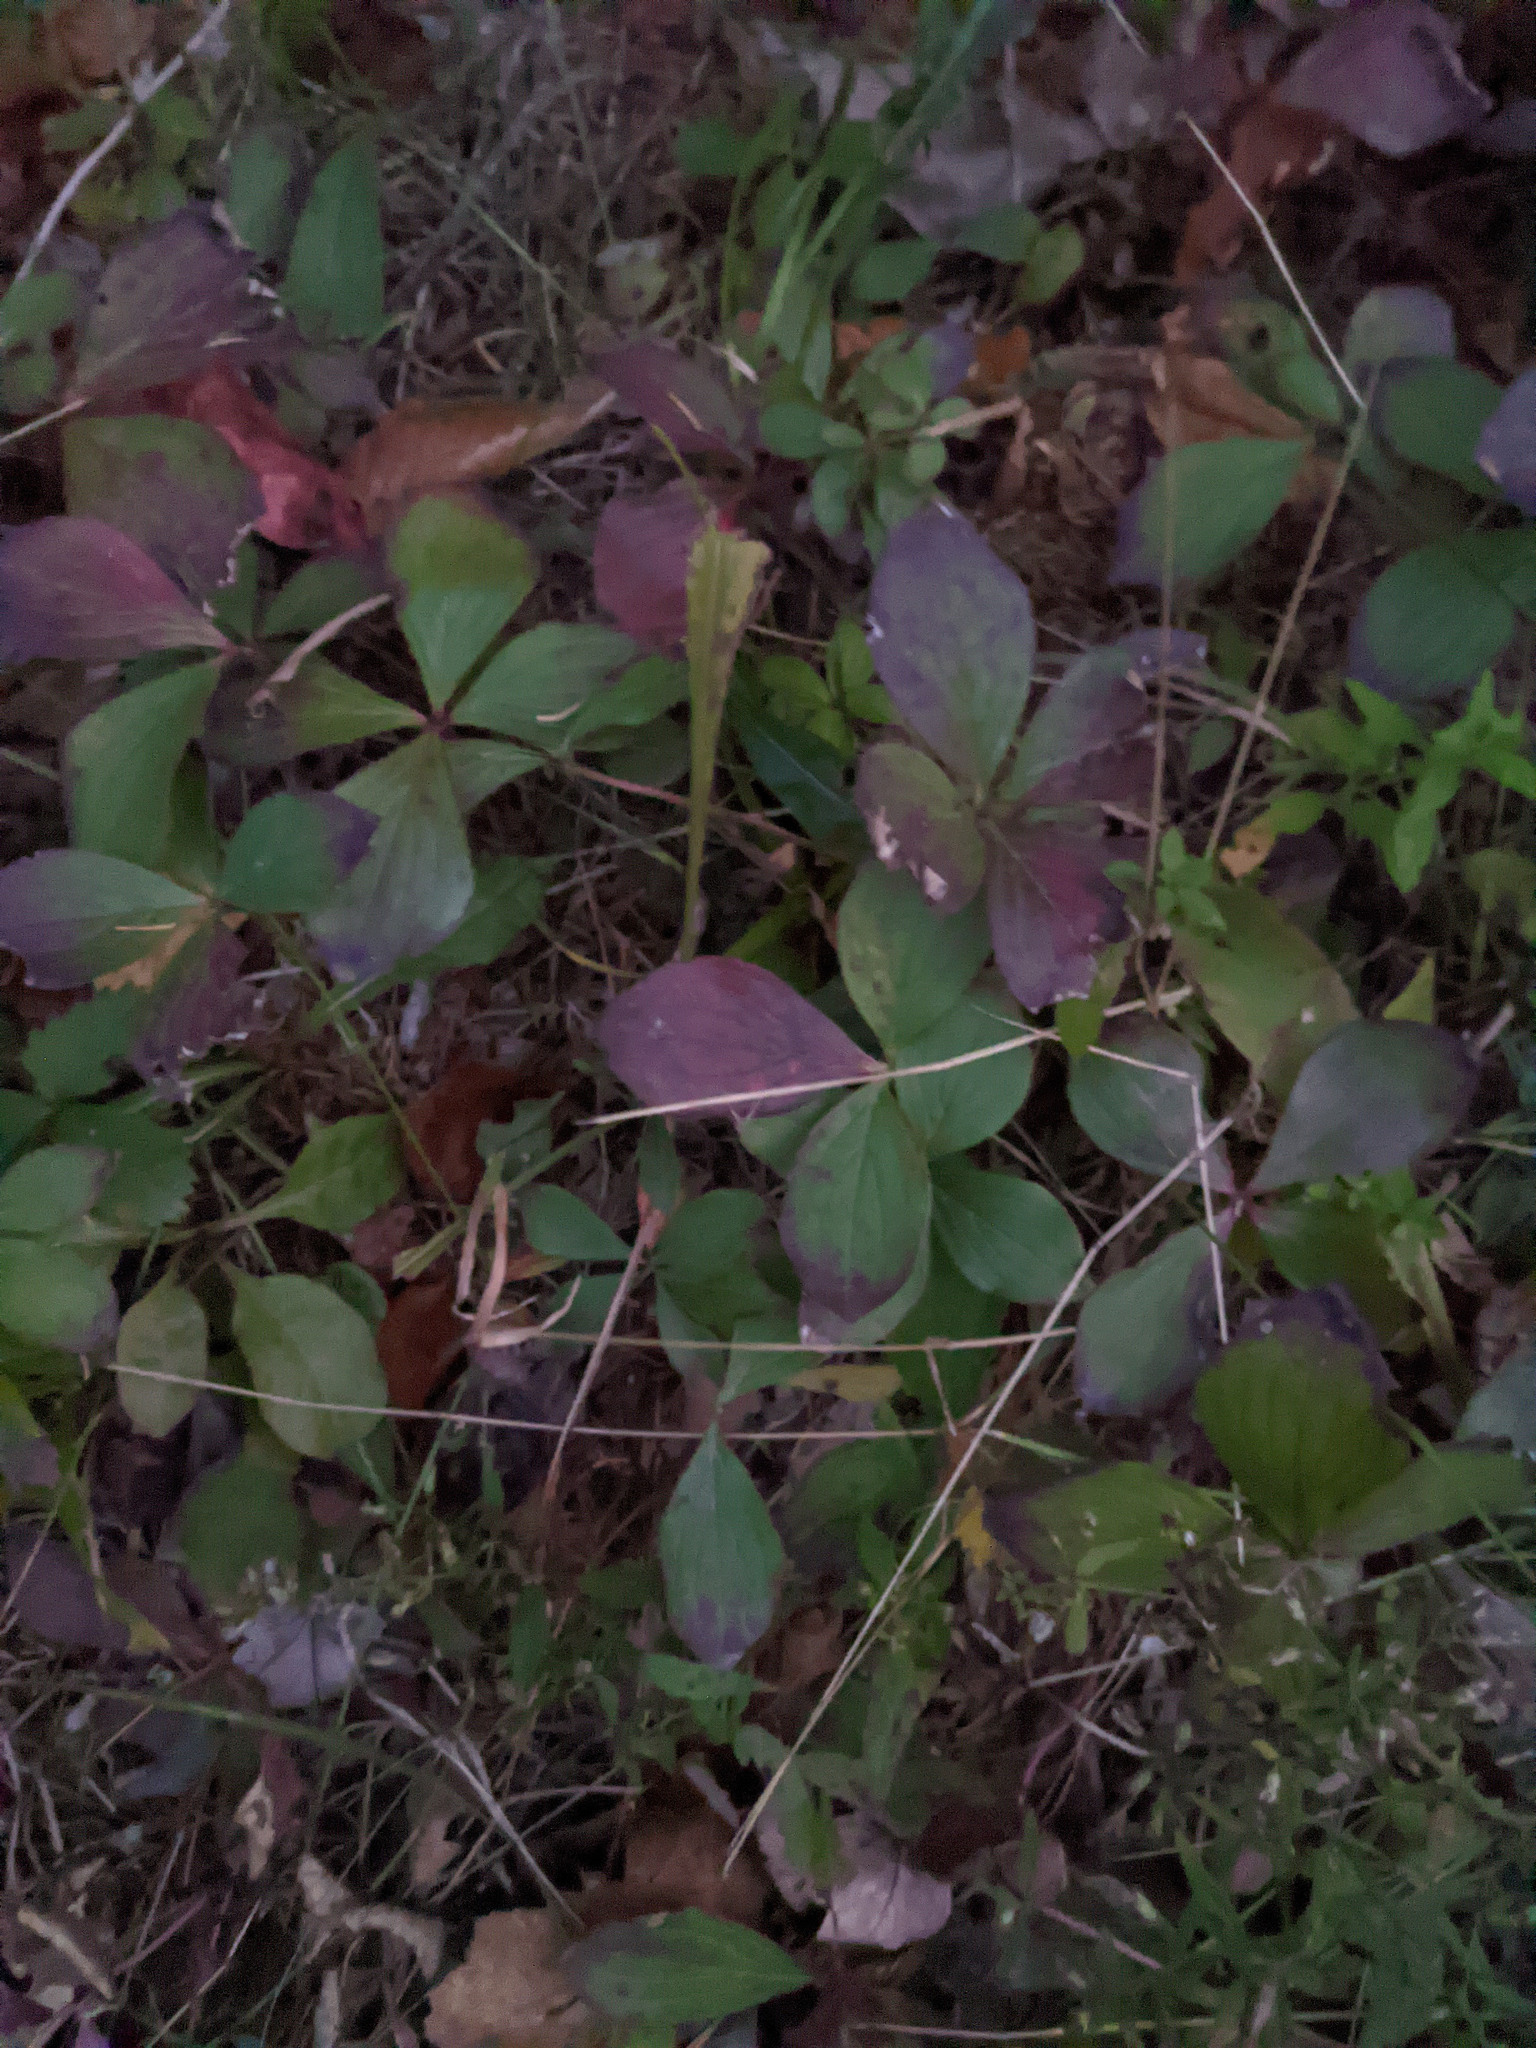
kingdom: Plantae
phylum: Tracheophyta
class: Magnoliopsida
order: Cornales
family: Cornaceae
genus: Cornus
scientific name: Cornus canadensis
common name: Creeping dogwood
